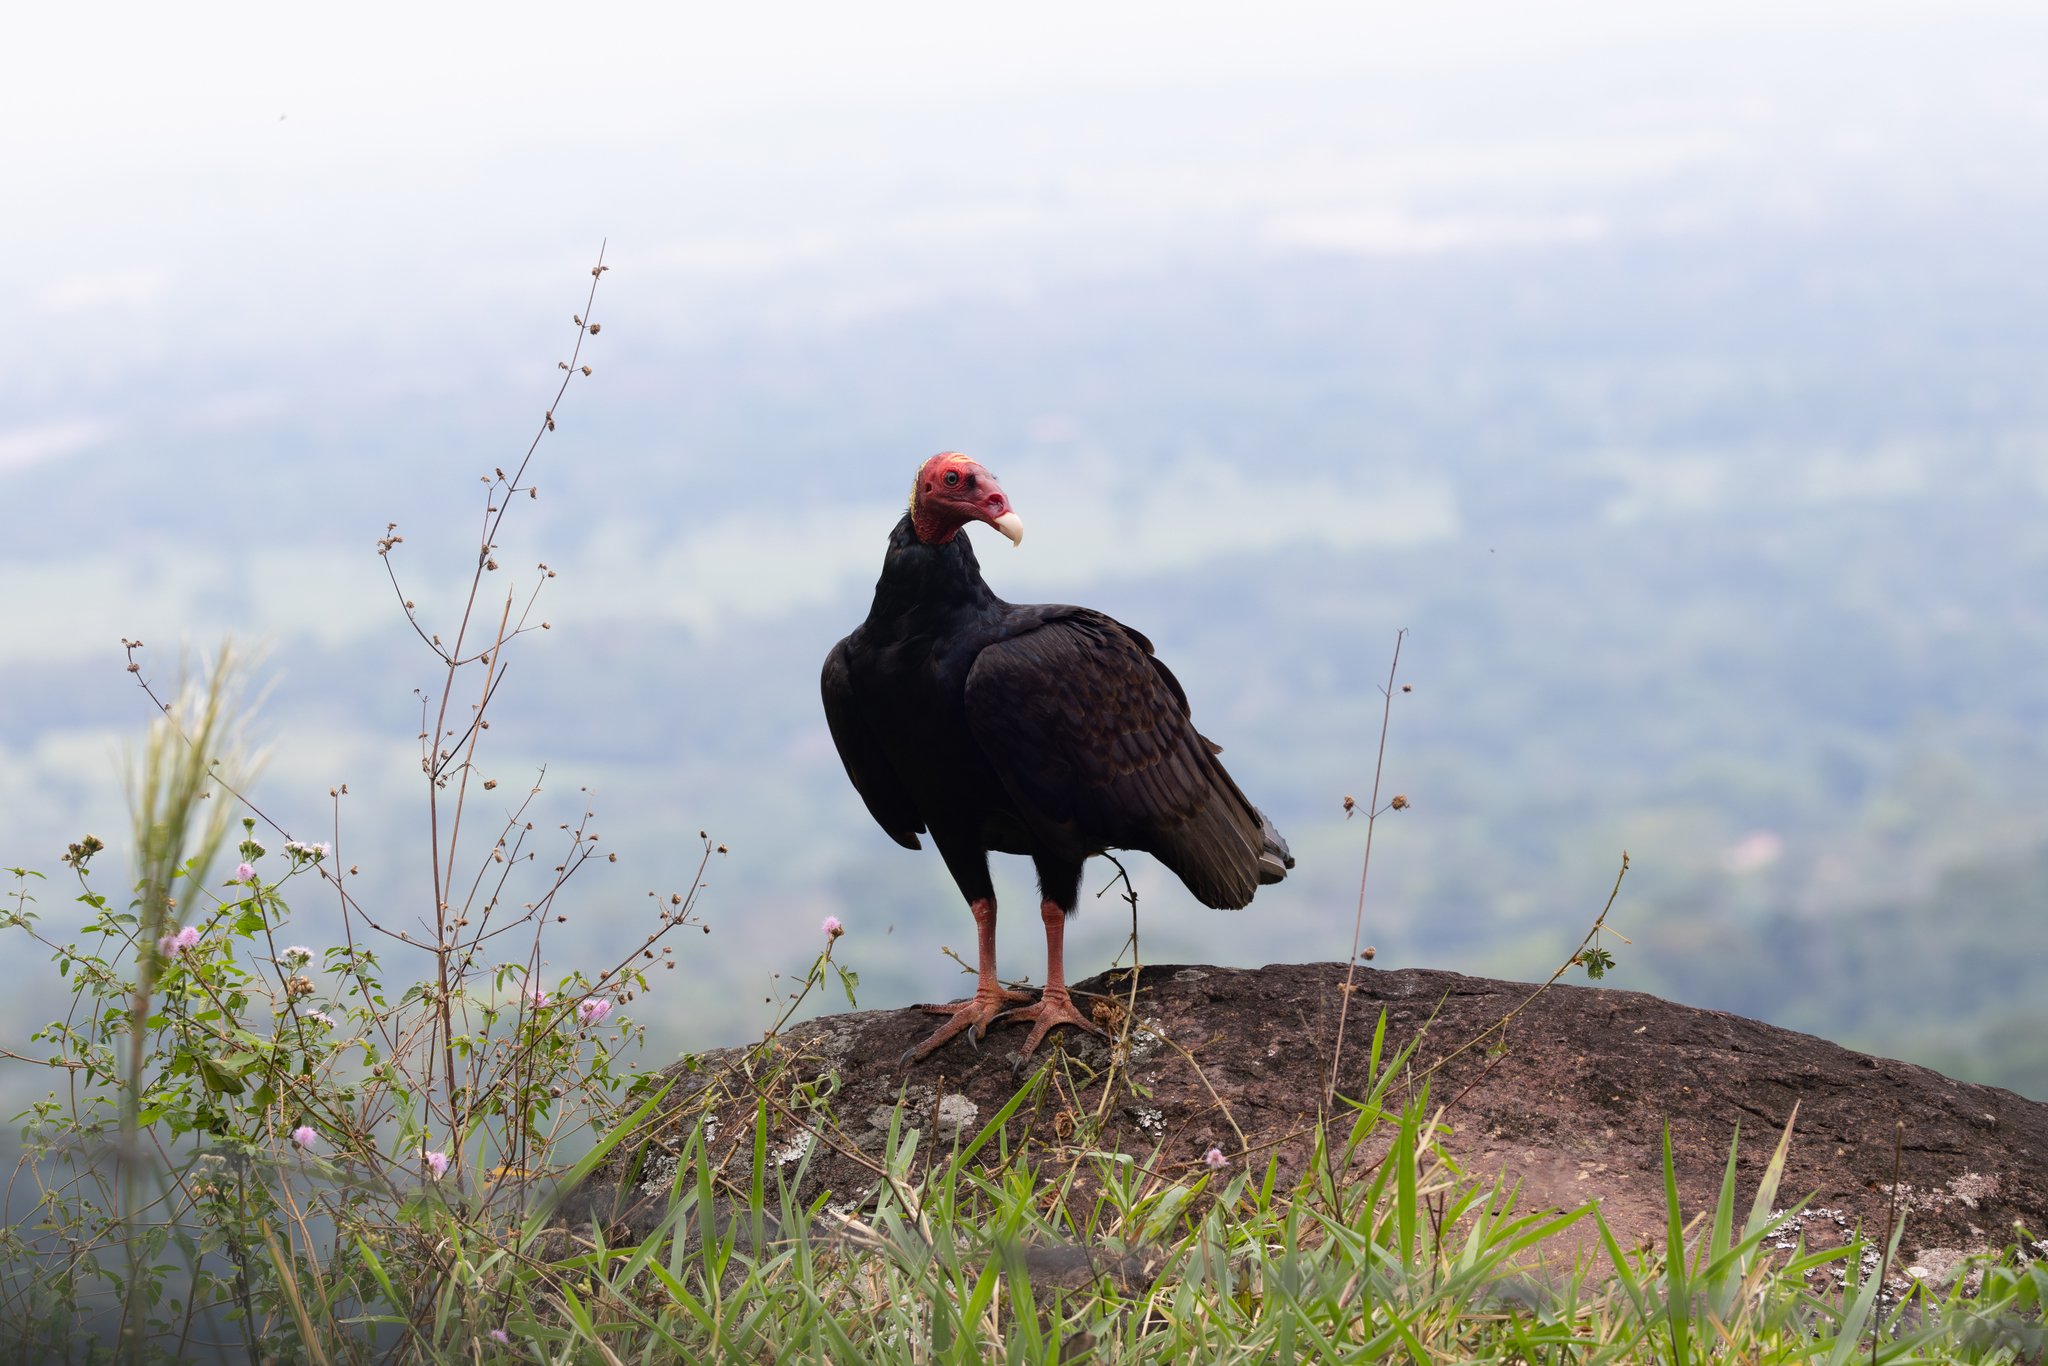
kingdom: Animalia
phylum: Chordata
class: Aves
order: Accipitriformes
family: Cathartidae
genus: Cathartes
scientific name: Cathartes aura
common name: Turkey vulture
